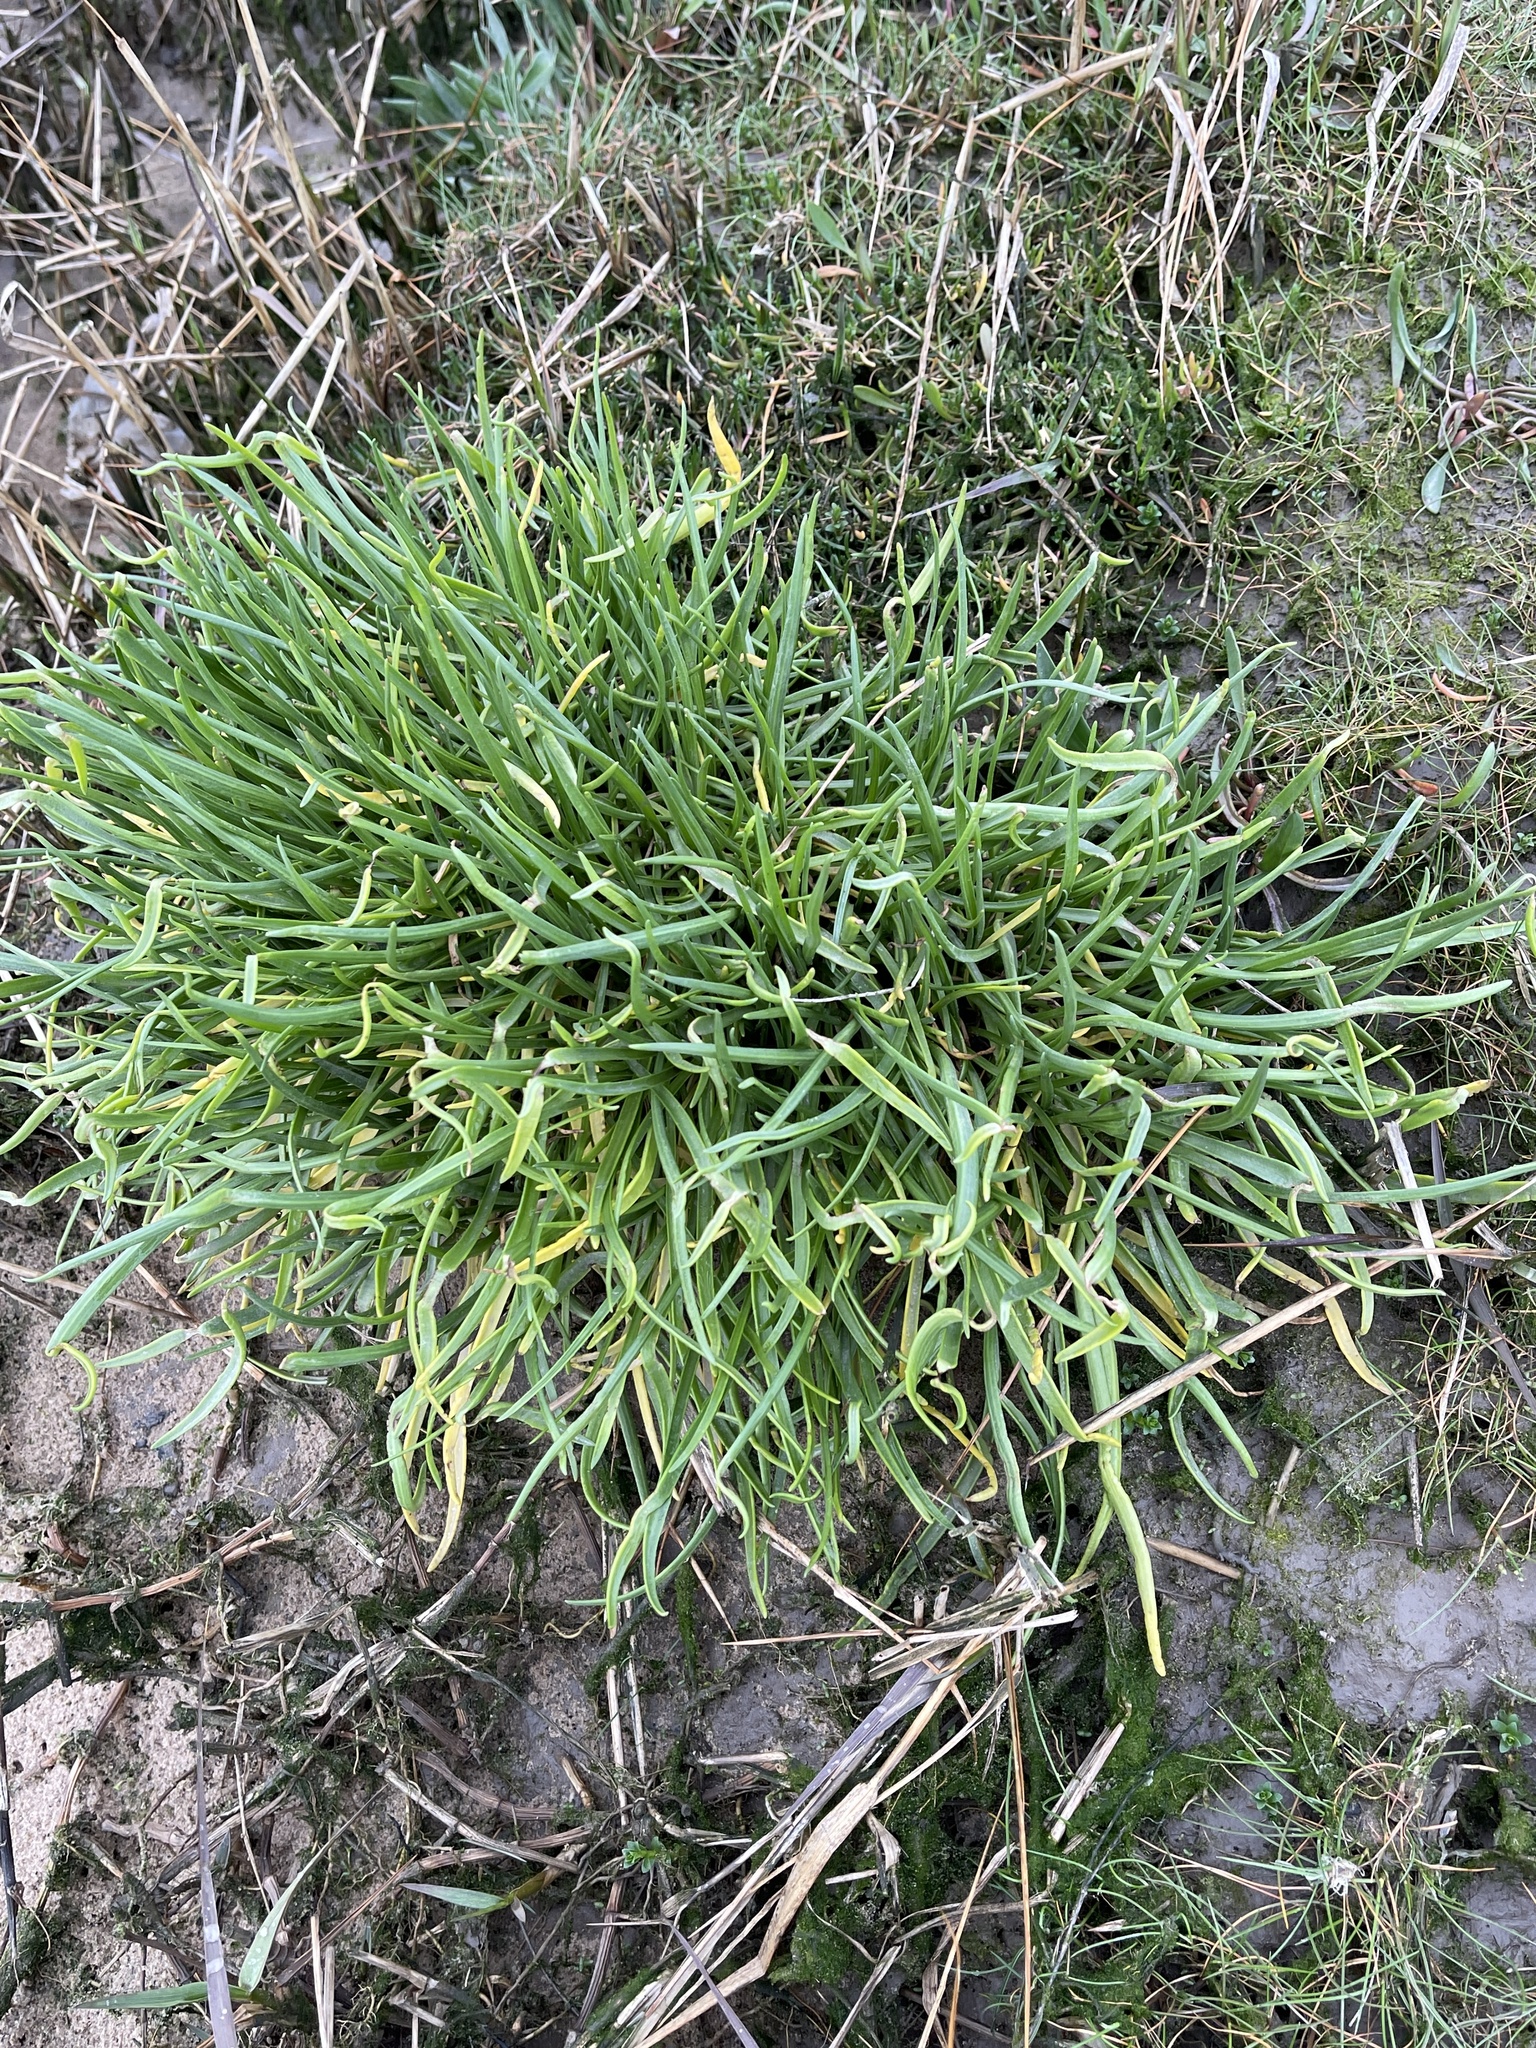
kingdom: Plantae
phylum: Tracheophyta
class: Magnoliopsida
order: Lamiales
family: Plantaginaceae
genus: Plantago
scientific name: Plantago maritima
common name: Sea plantain
